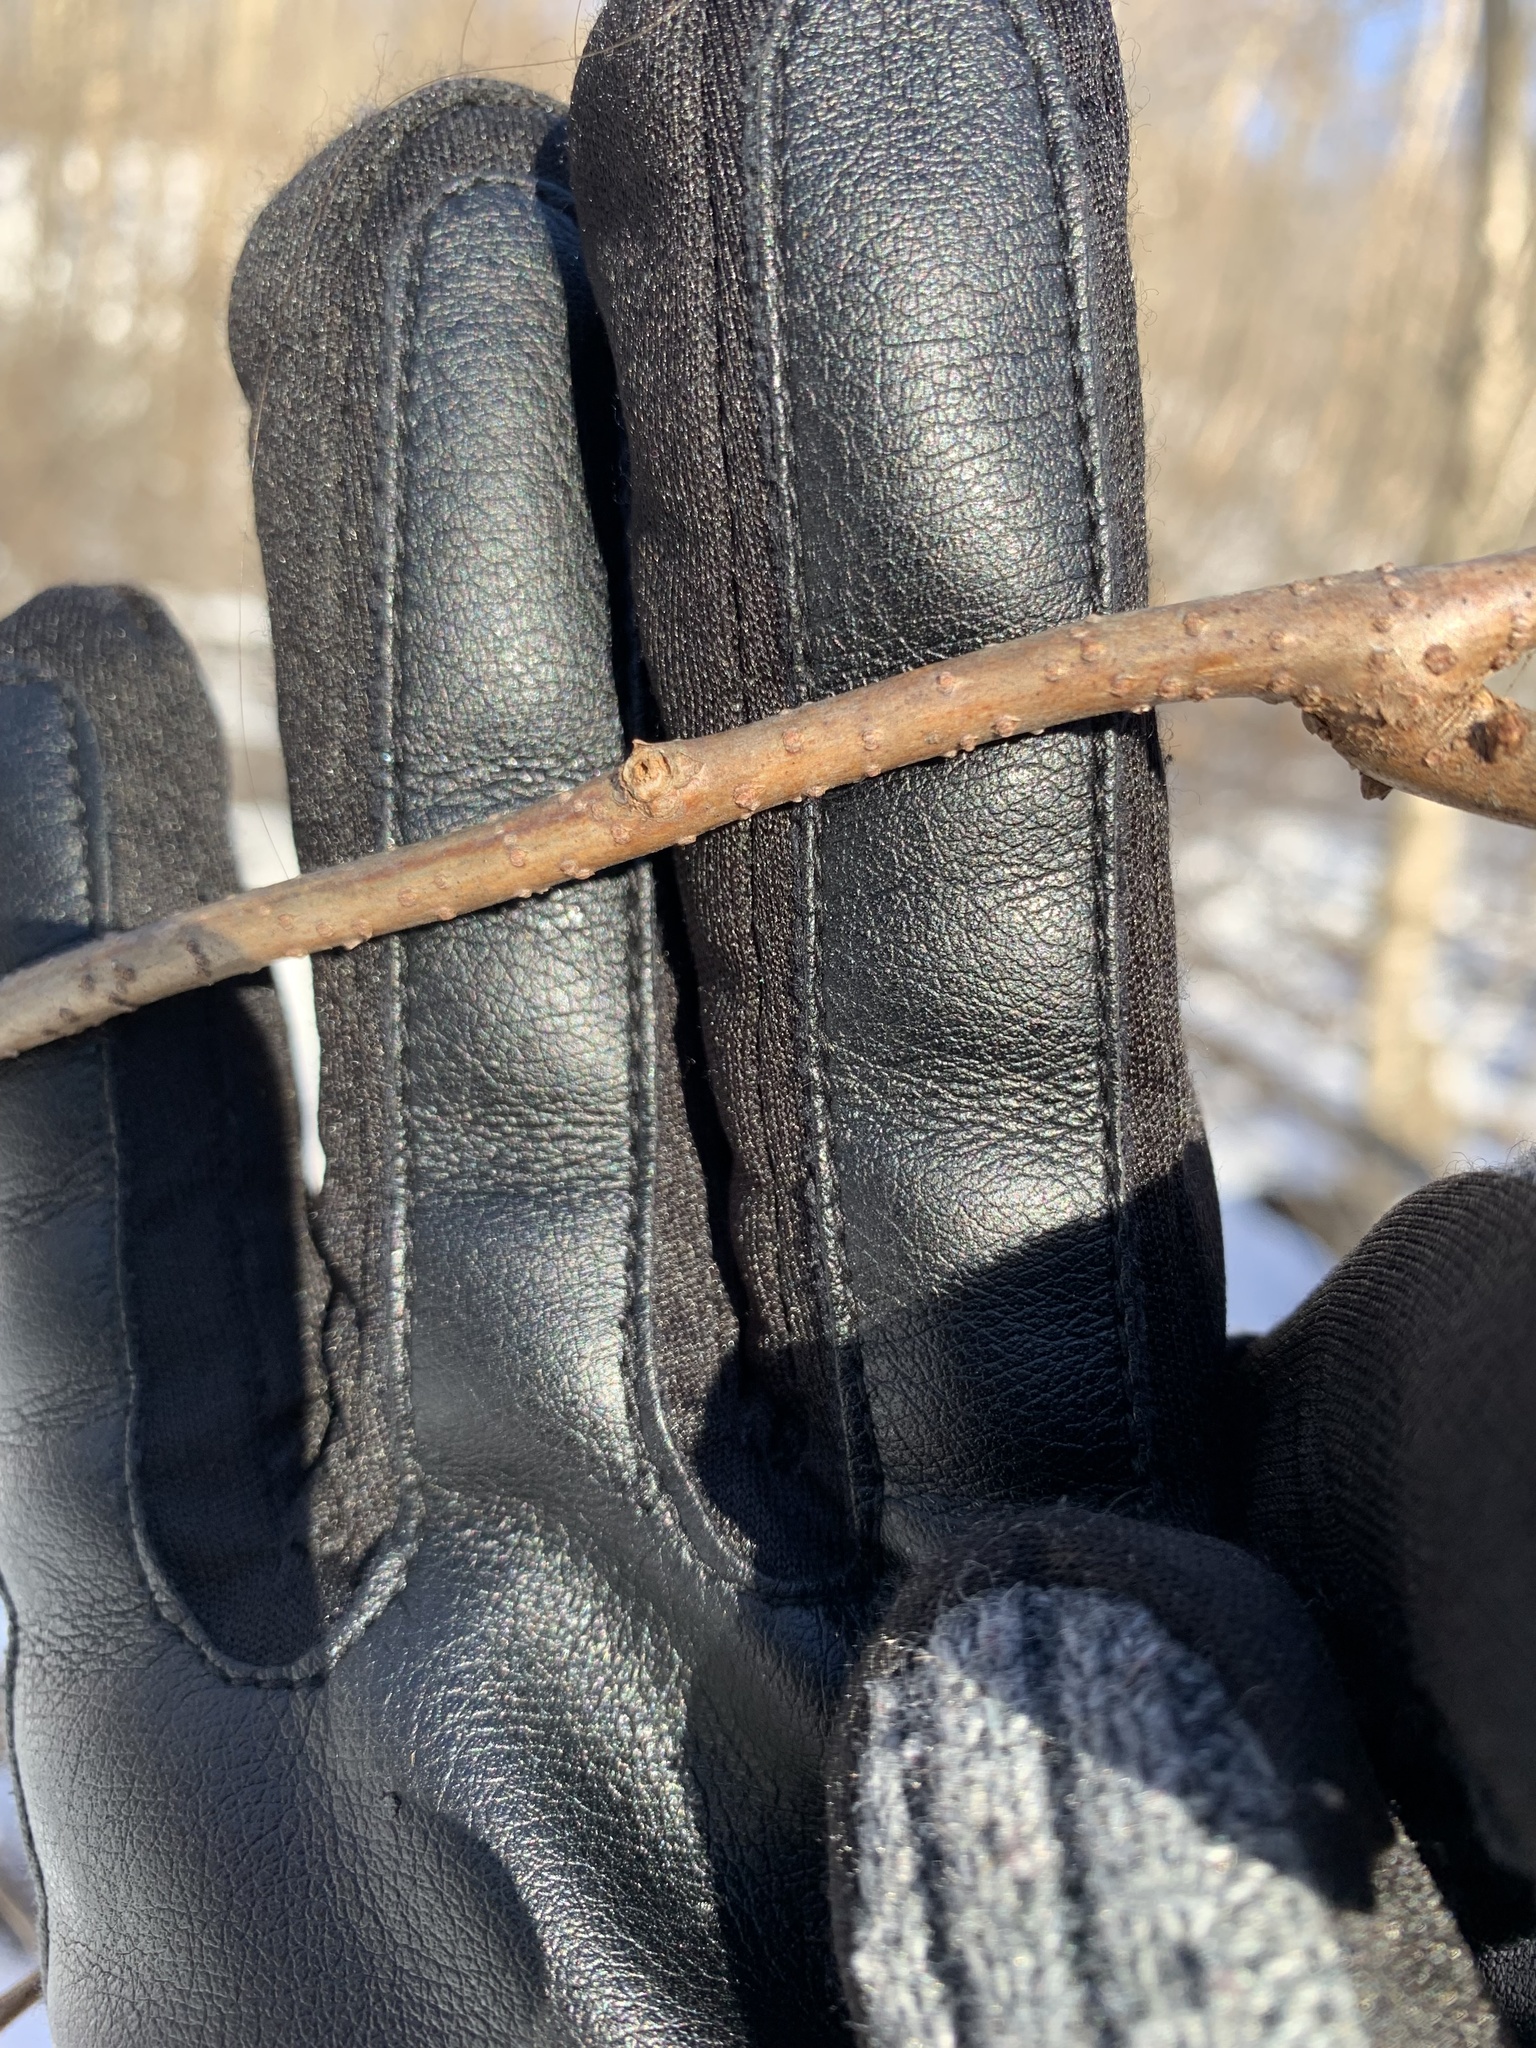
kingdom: Plantae
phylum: Tracheophyta
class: Magnoliopsida
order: Celastrales
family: Celastraceae
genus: Celastrus
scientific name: Celastrus orbiculatus
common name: Oriental bittersweet
